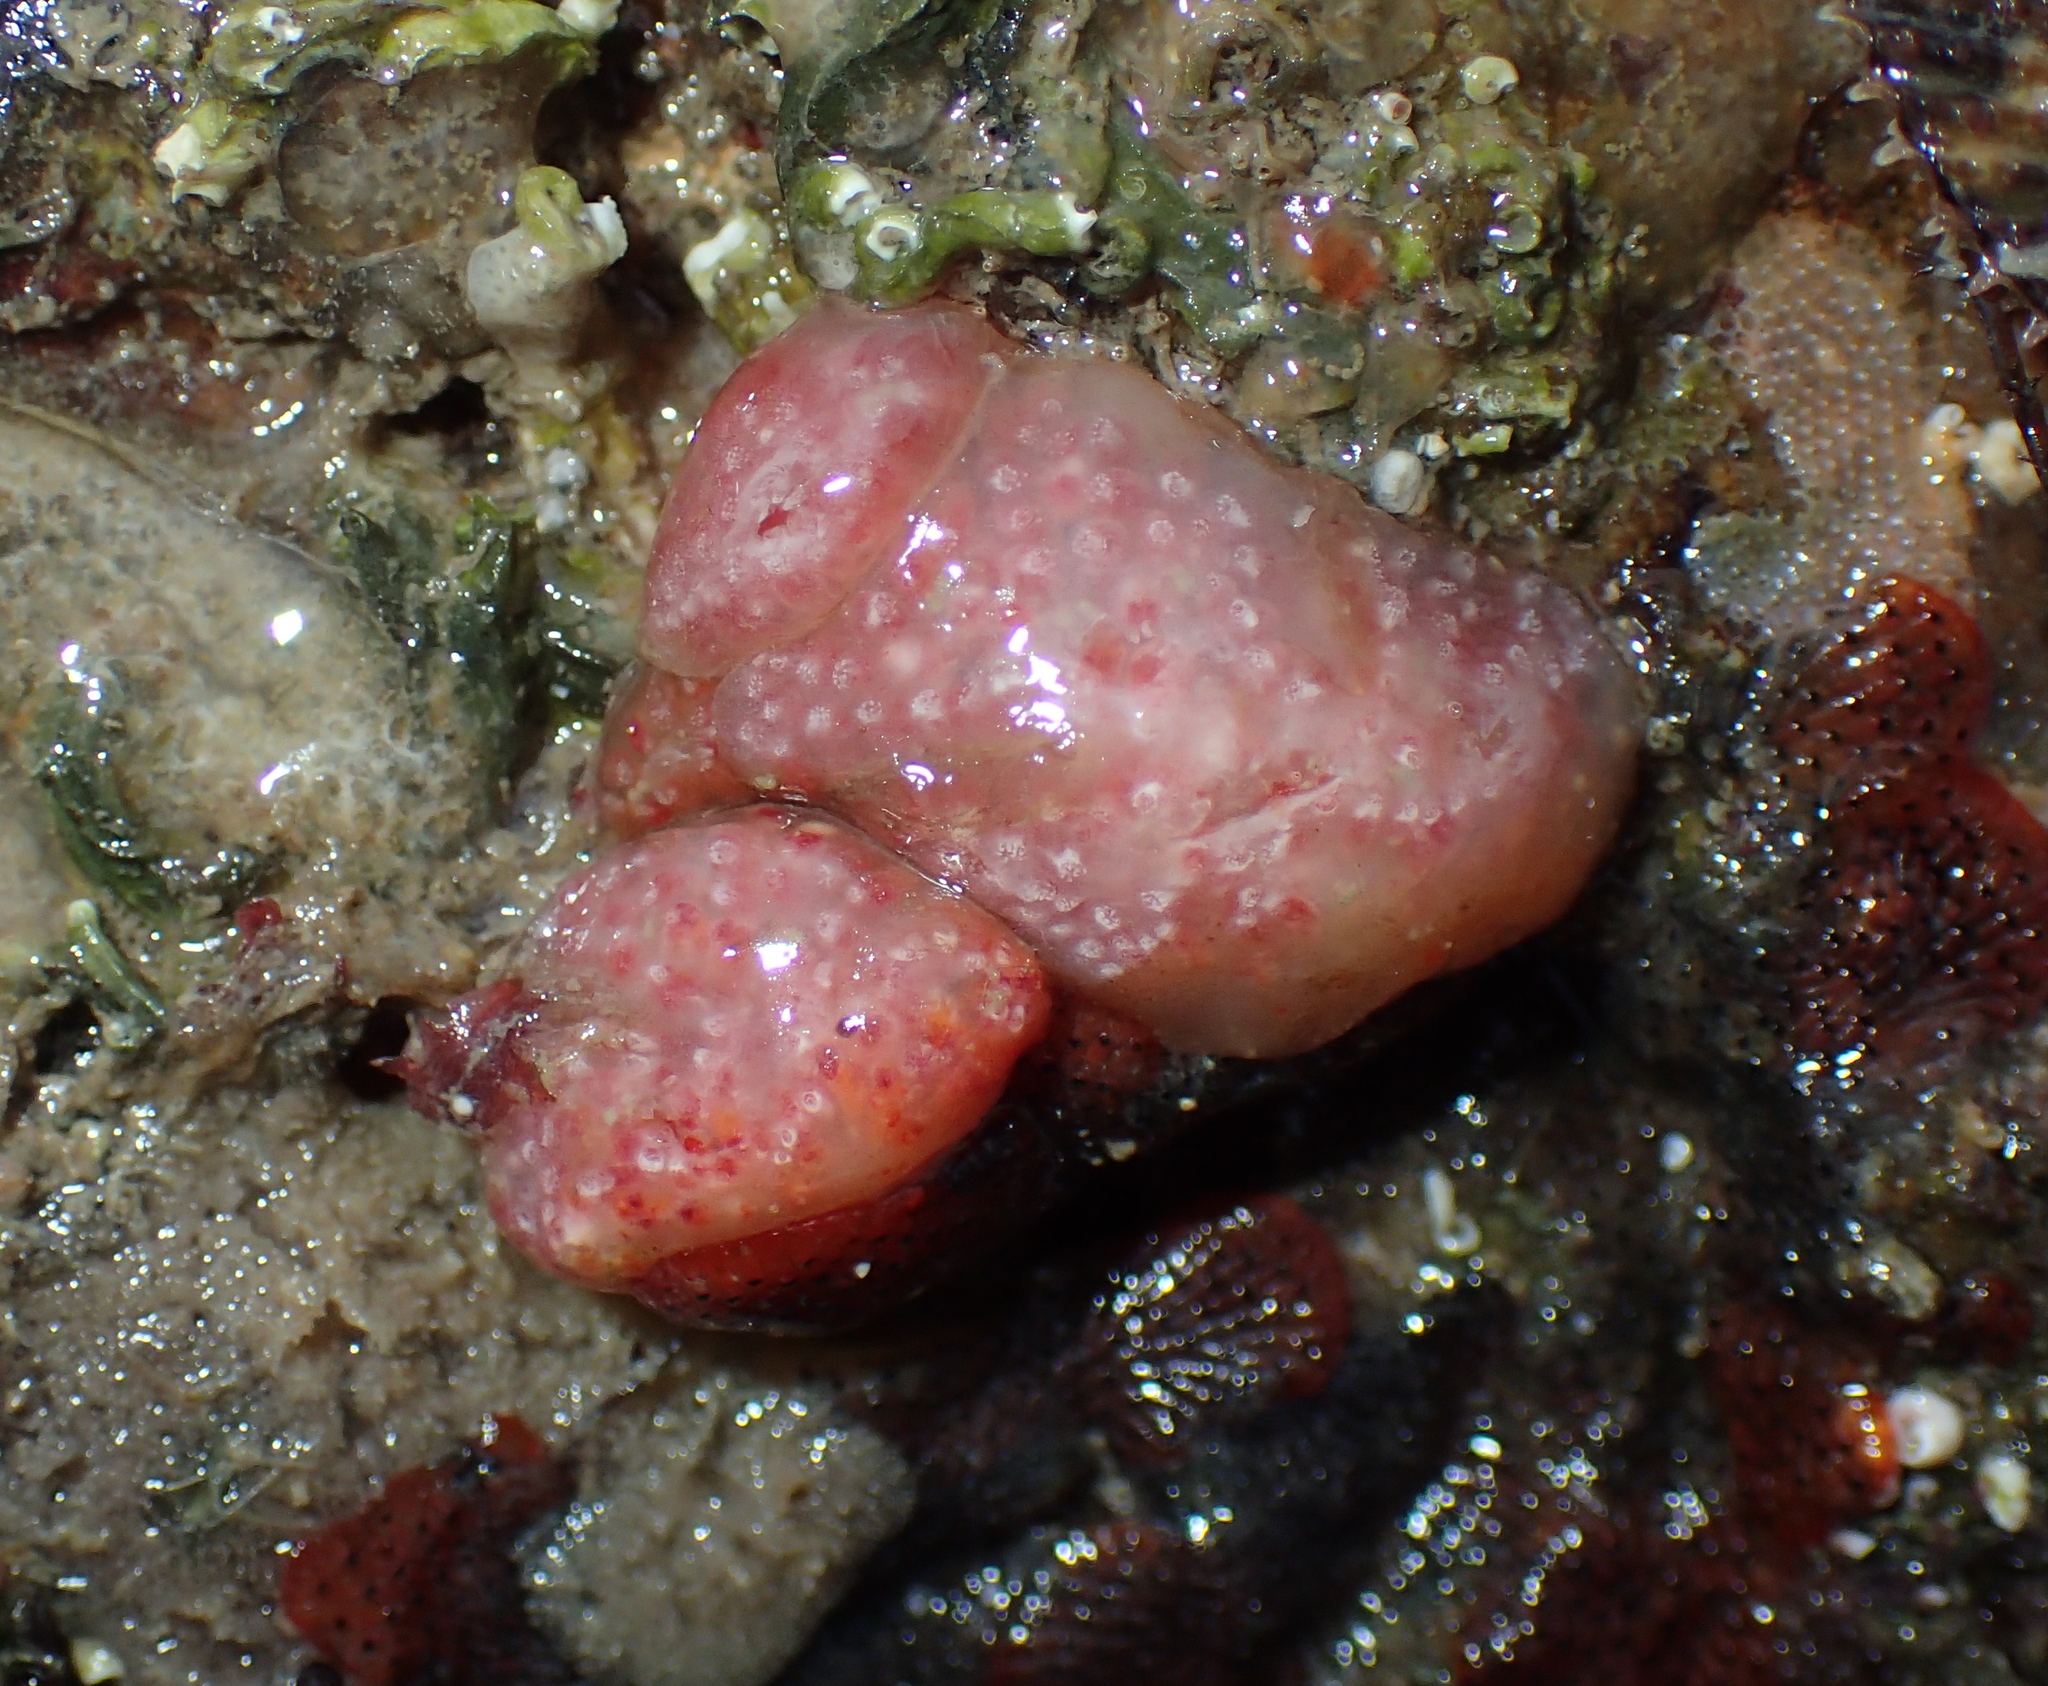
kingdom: Animalia
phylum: Chordata
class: Ascidiacea
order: Aplousobranchia
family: Polyclinidae
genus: Aplidium
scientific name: Aplidium elegans
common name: Sea-strawberry
